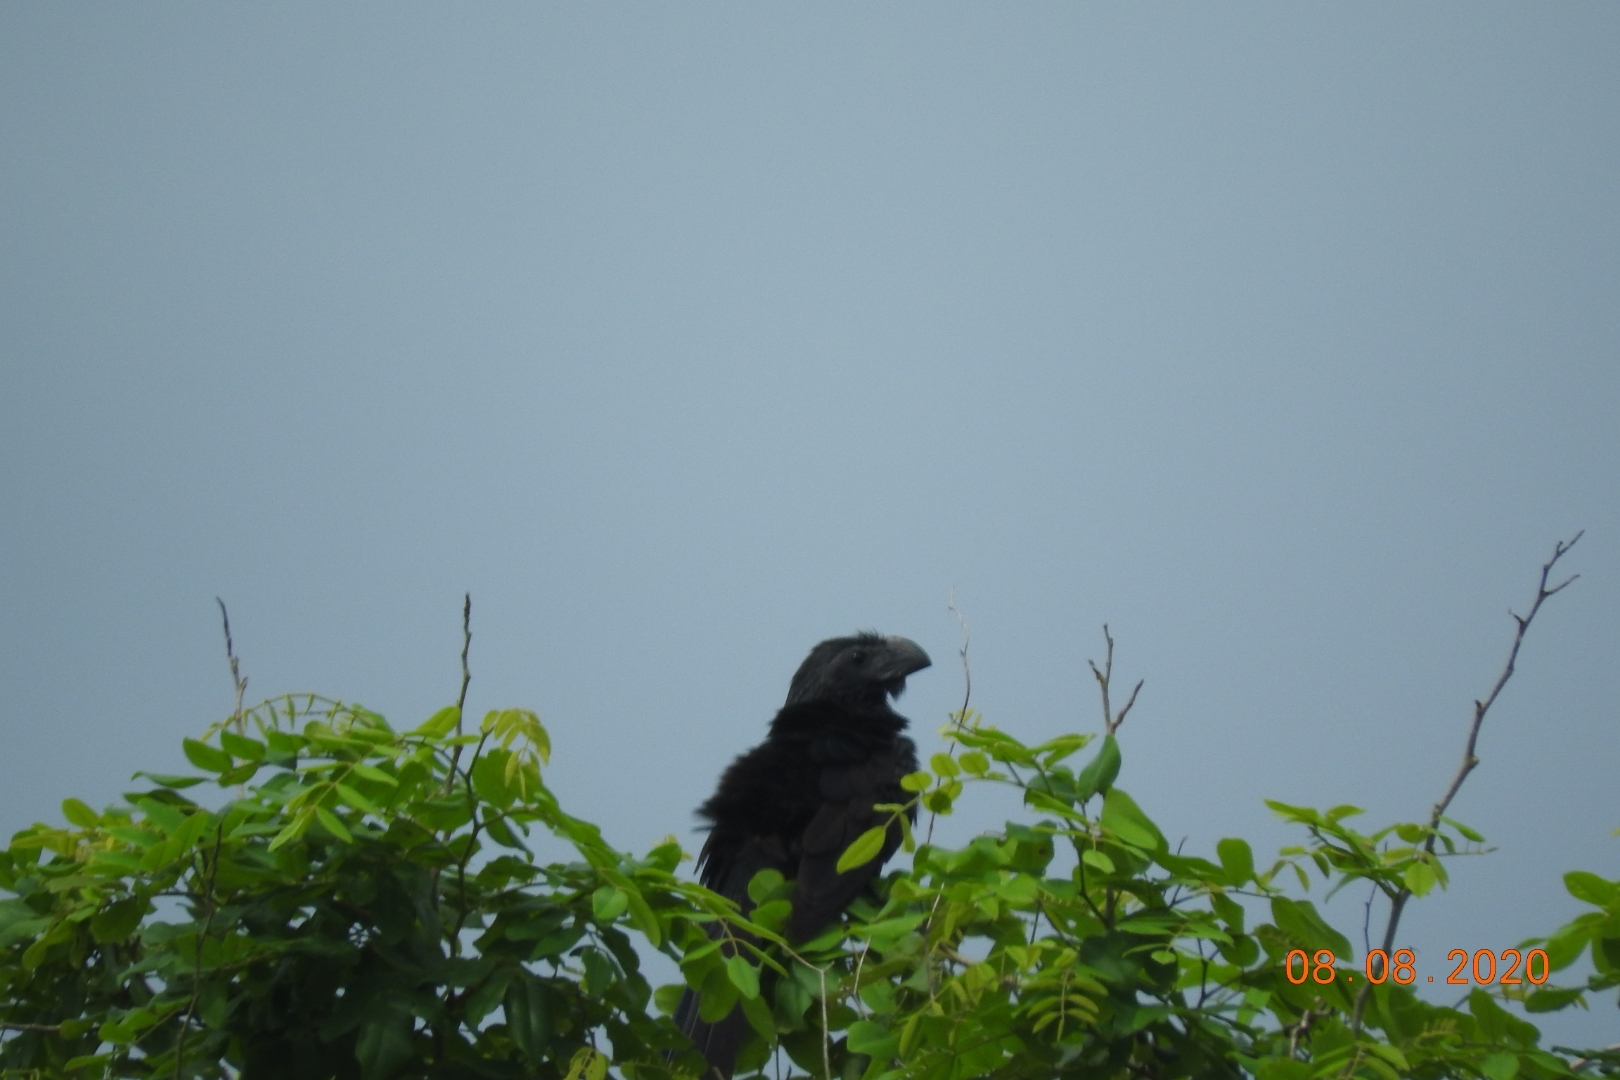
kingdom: Animalia
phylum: Chordata
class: Aves
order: Cuculiformes
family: Cuculidae
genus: Crotophaga
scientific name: Crotophaga sulcirostris
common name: Groove-billed ani
